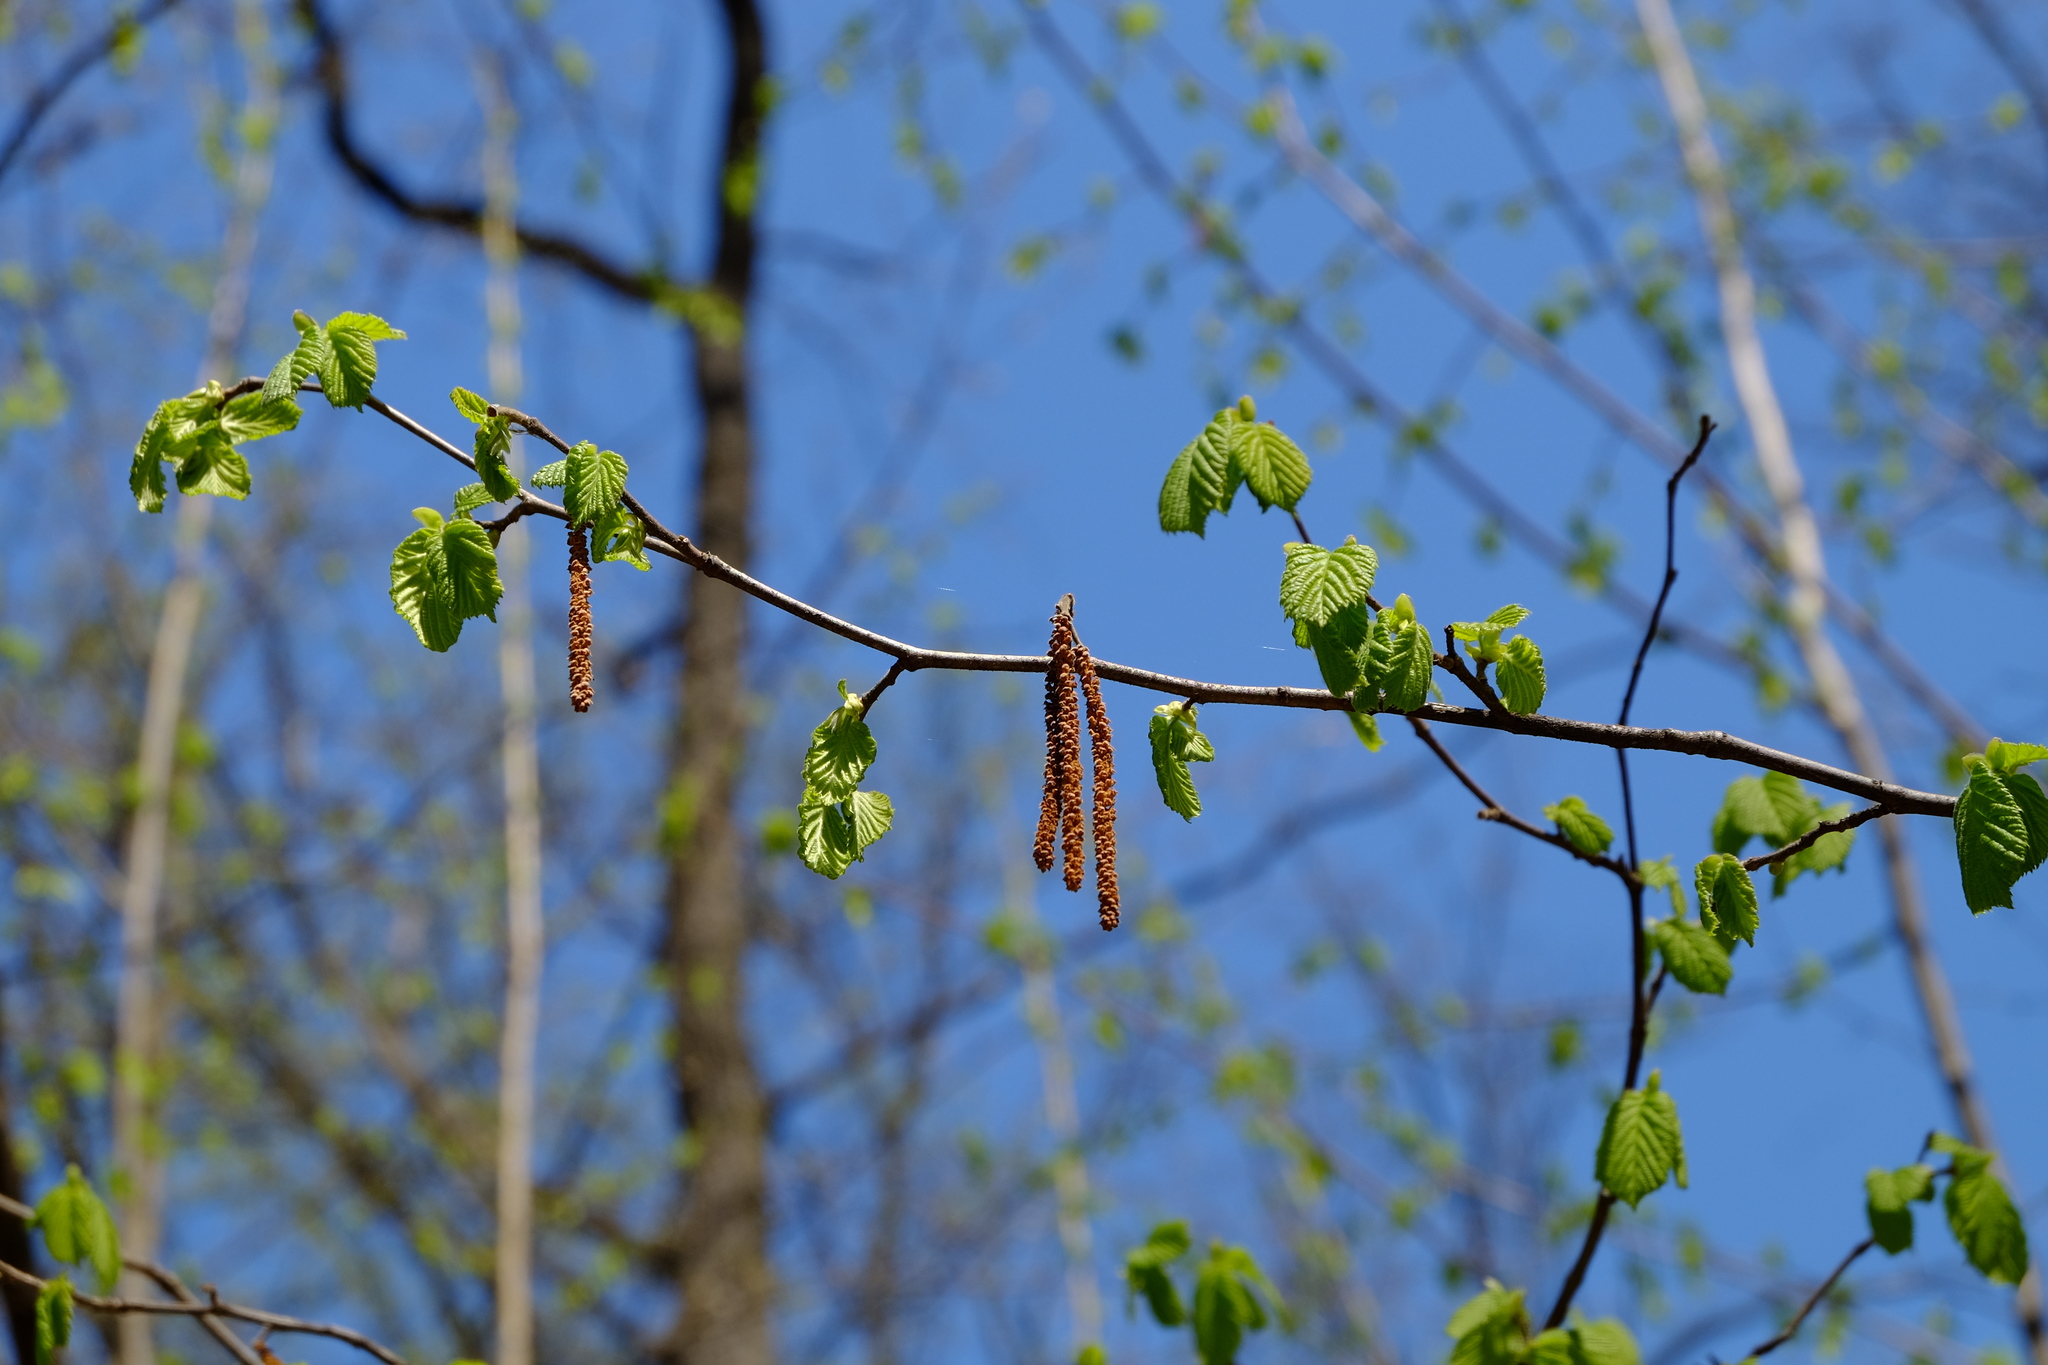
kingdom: Plantae
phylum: Tracheophyta
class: Magnoliopsida
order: Fagales
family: Betulaceae
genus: Corylus
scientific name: Corylus avellana
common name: European hazel
